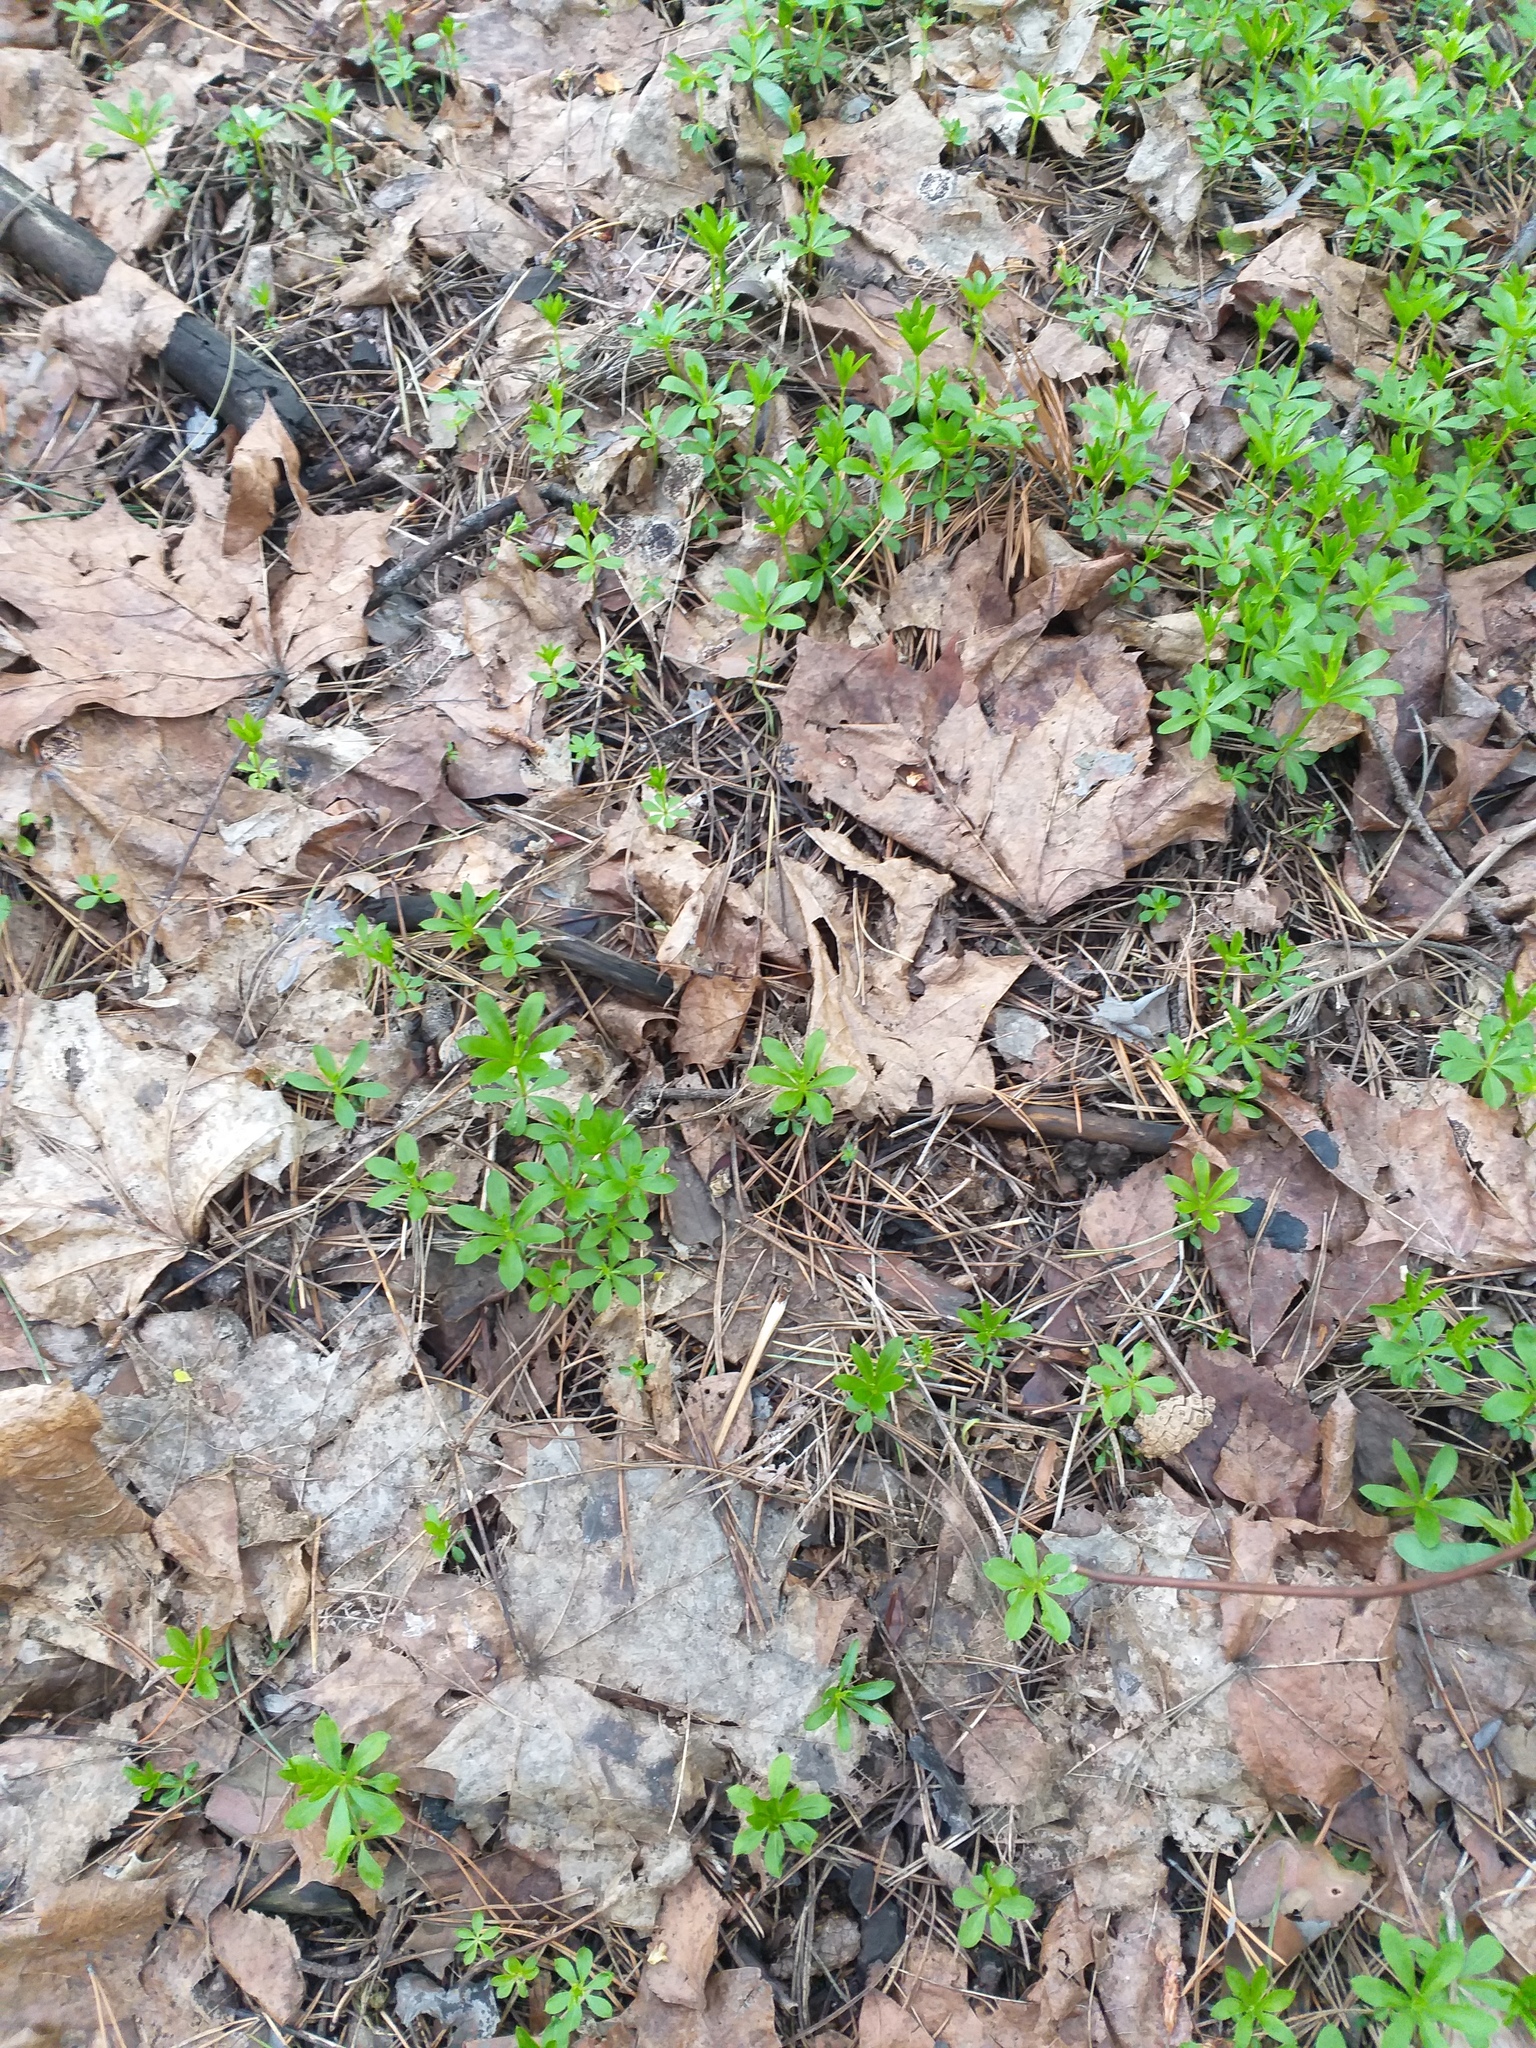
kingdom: Plantae
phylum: Tracheophyta
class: Magnoliopsida
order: Gentianales
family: Rubiaceae
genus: Galium
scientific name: Galium odoratum
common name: Sweet woodruff
